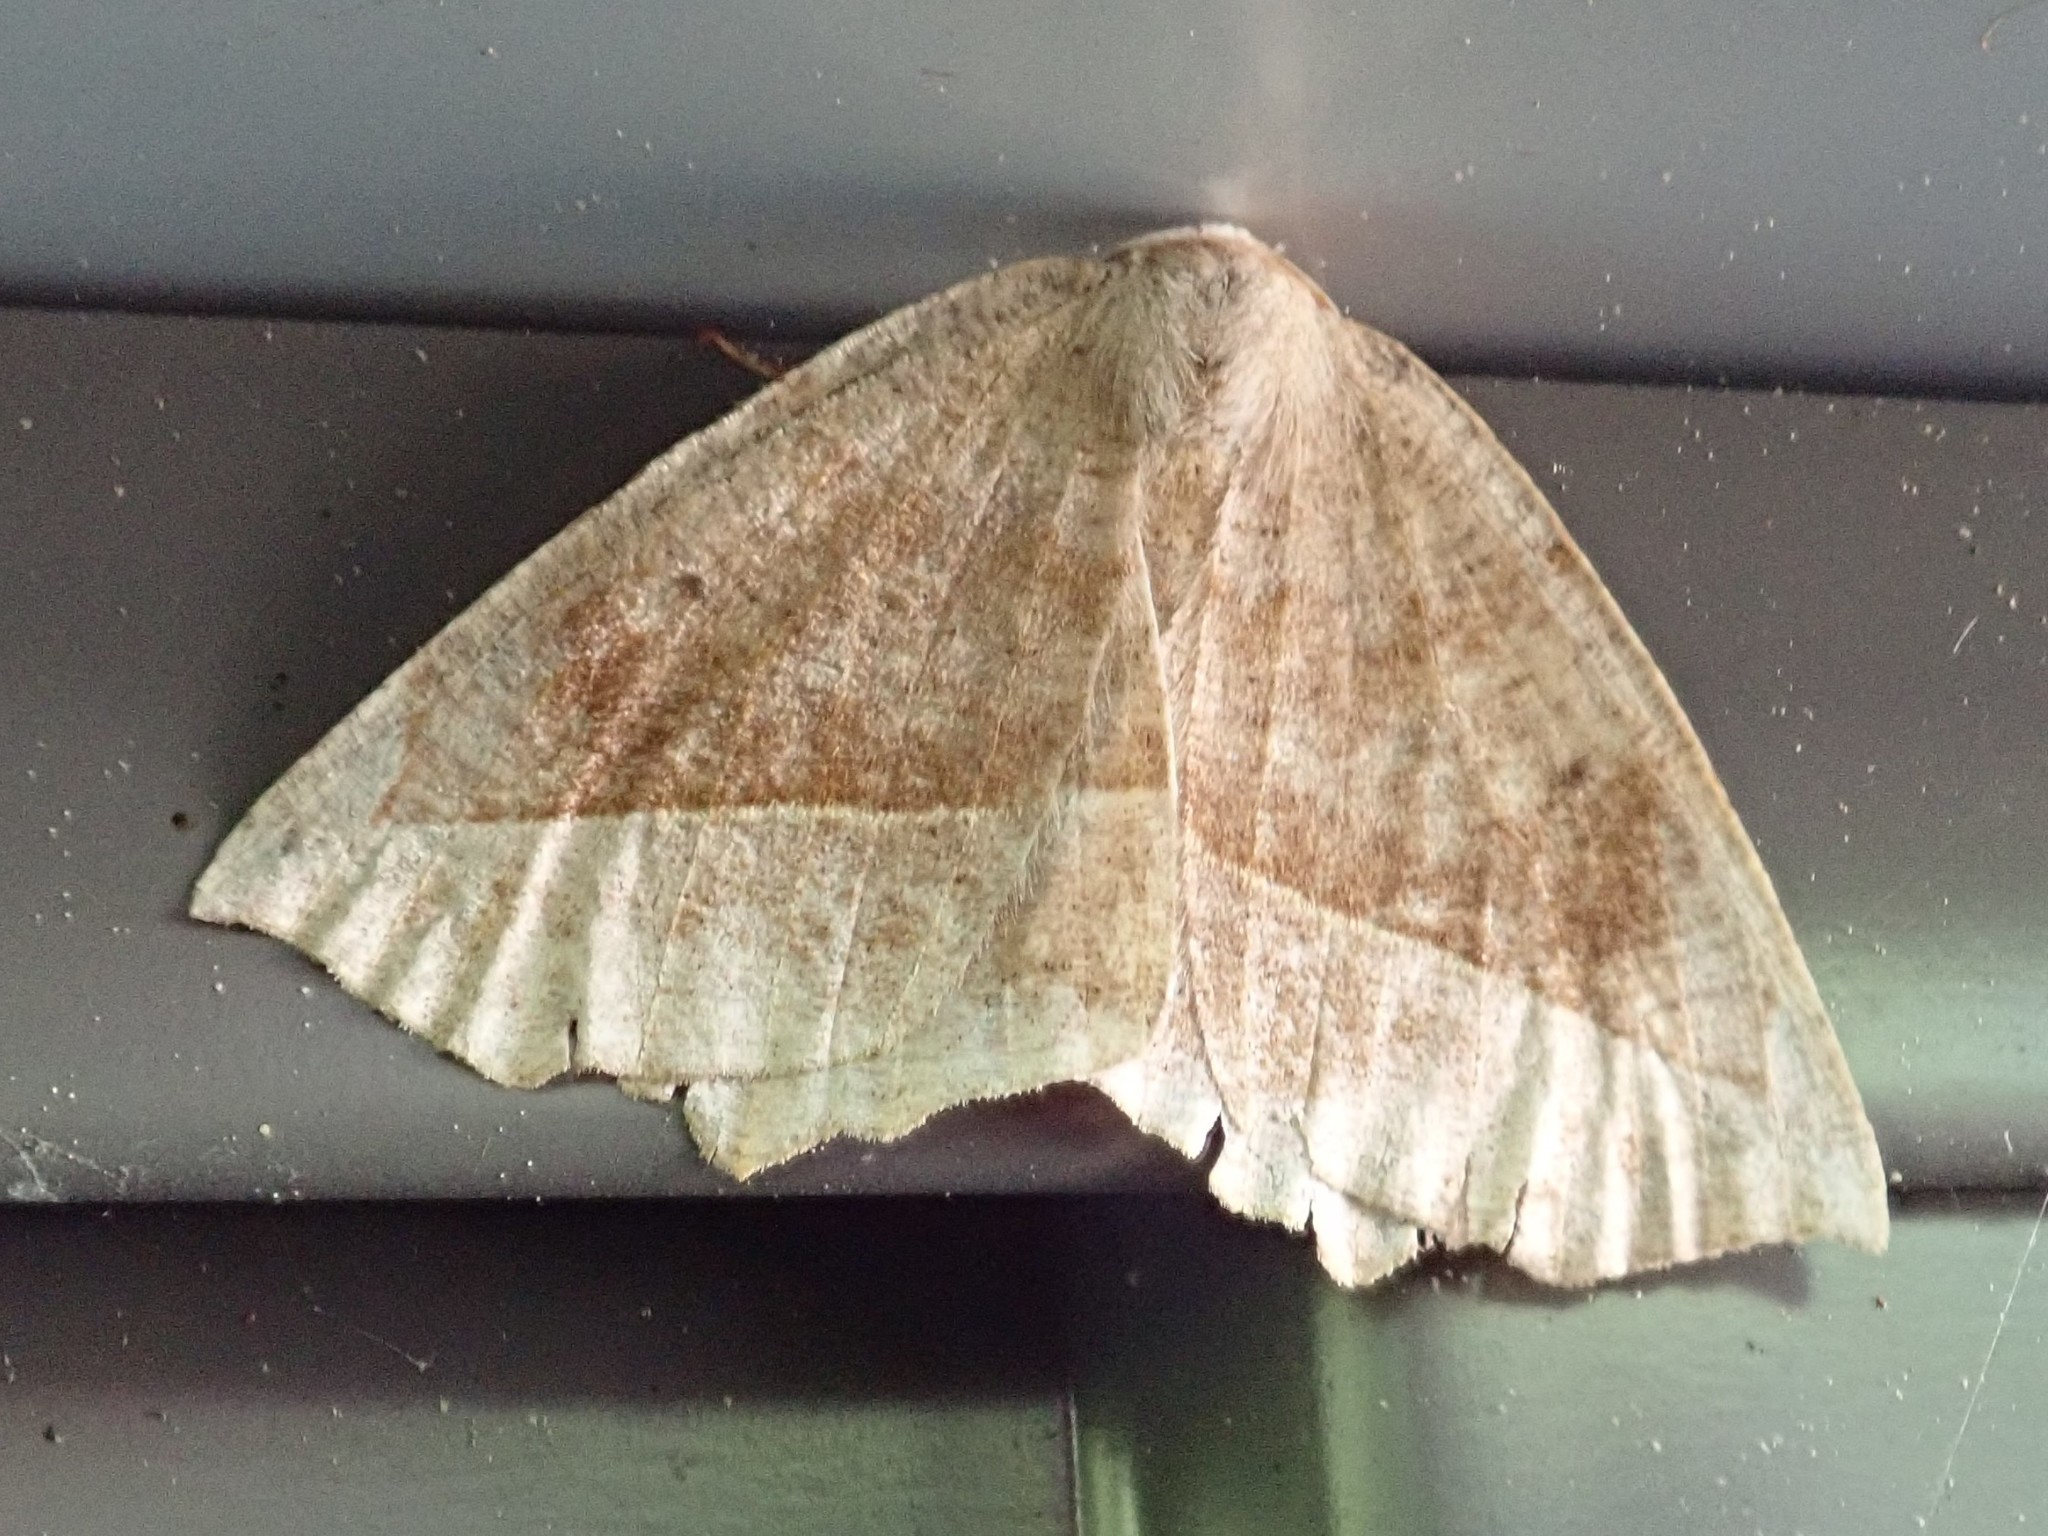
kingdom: Animalia
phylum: Arthropoda
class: Insecta
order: Lepidoptera
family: Geometridae
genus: Eutrapela
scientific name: Eutrapela clemataria
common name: Curved-toothed geometer
